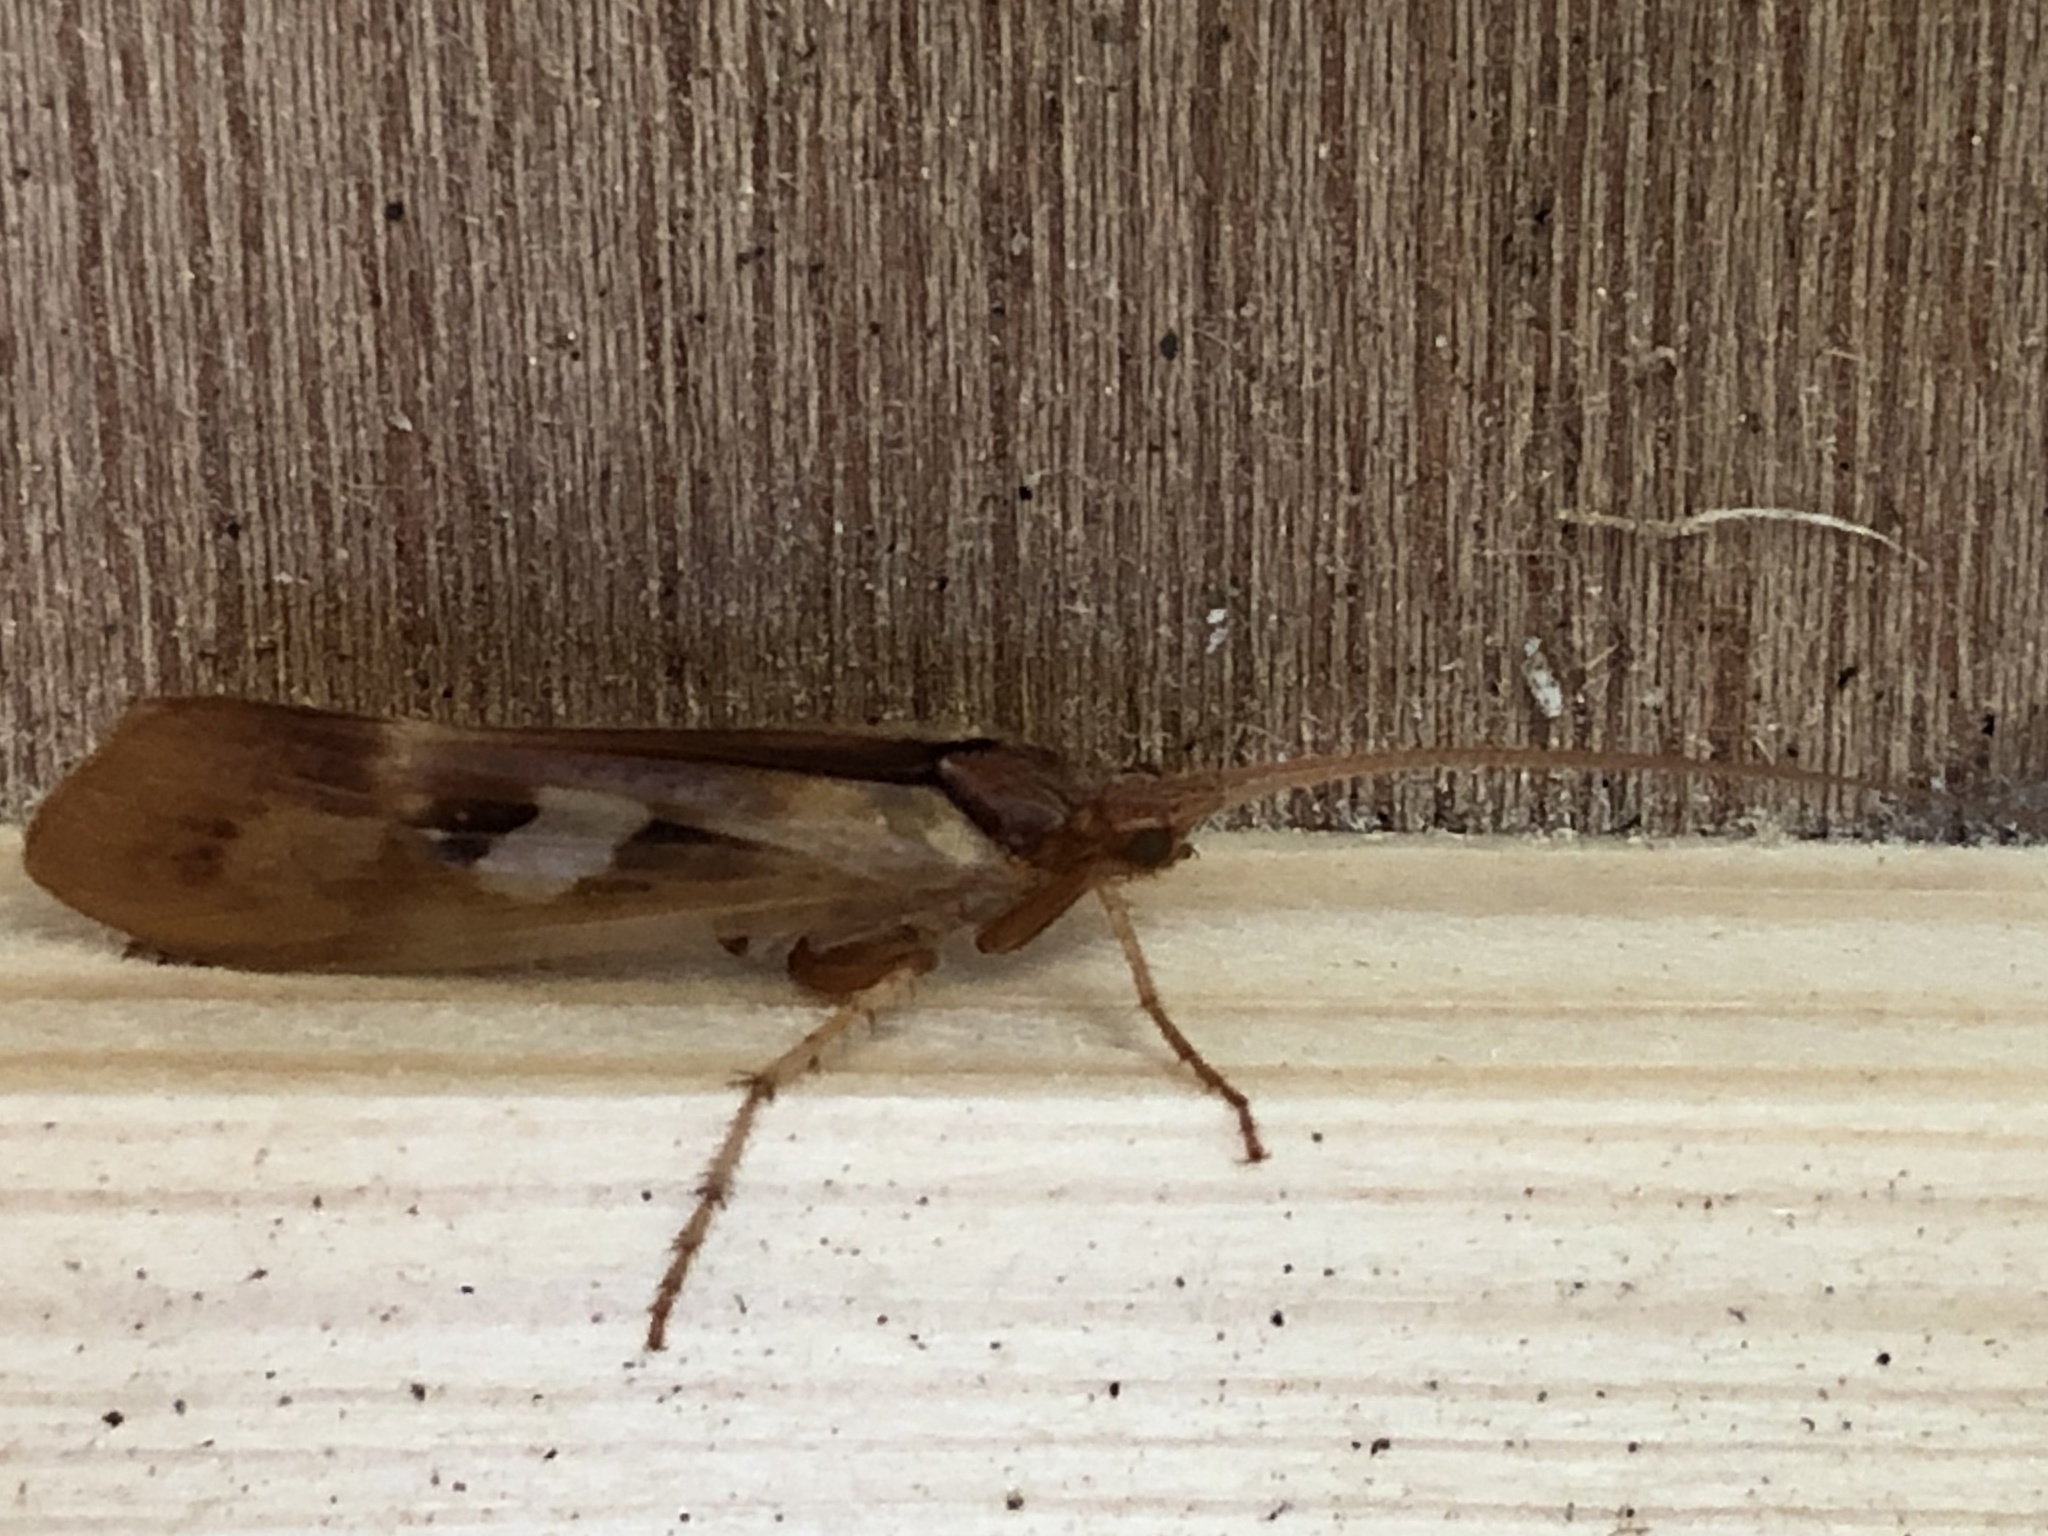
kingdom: Animalia
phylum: Arthropoda
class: Insecta
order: Trichoptera
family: Limnephilidae
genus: Limnephilus
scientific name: Limnephilus rhombicus
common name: Diamond northern caddisfly
